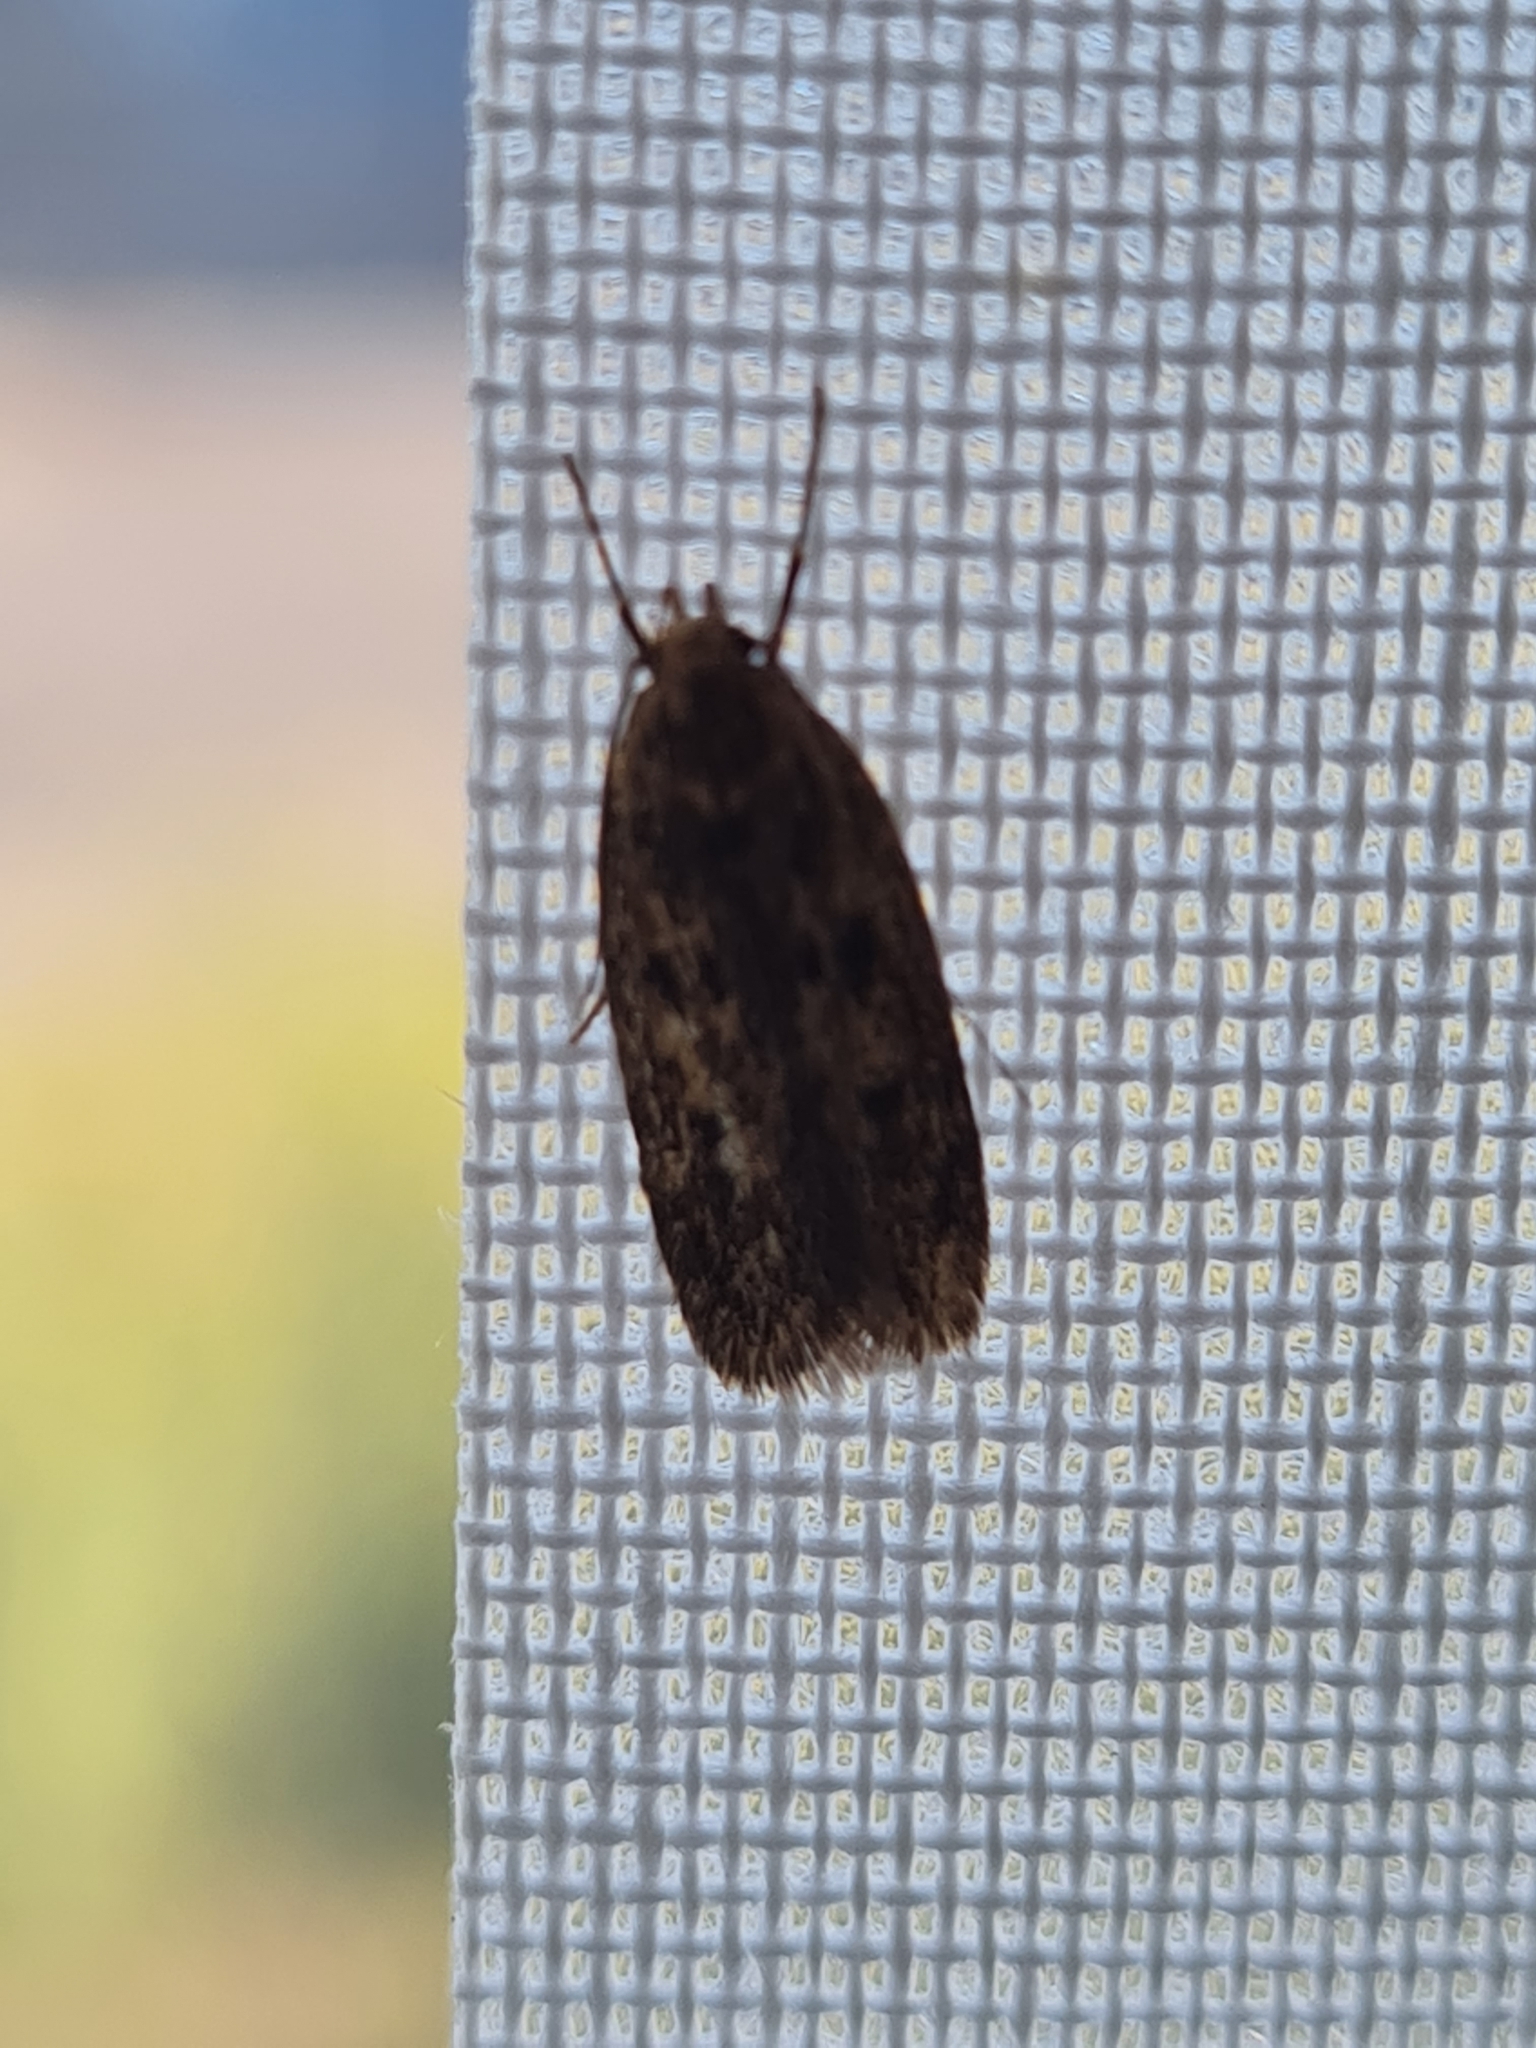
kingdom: Animalia
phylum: Arthropoda
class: Insecta
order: Lepidoptera
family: Oecophoridae
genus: Hofmannophila
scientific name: Hofmannophila pseudospretella
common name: Brown house moth
